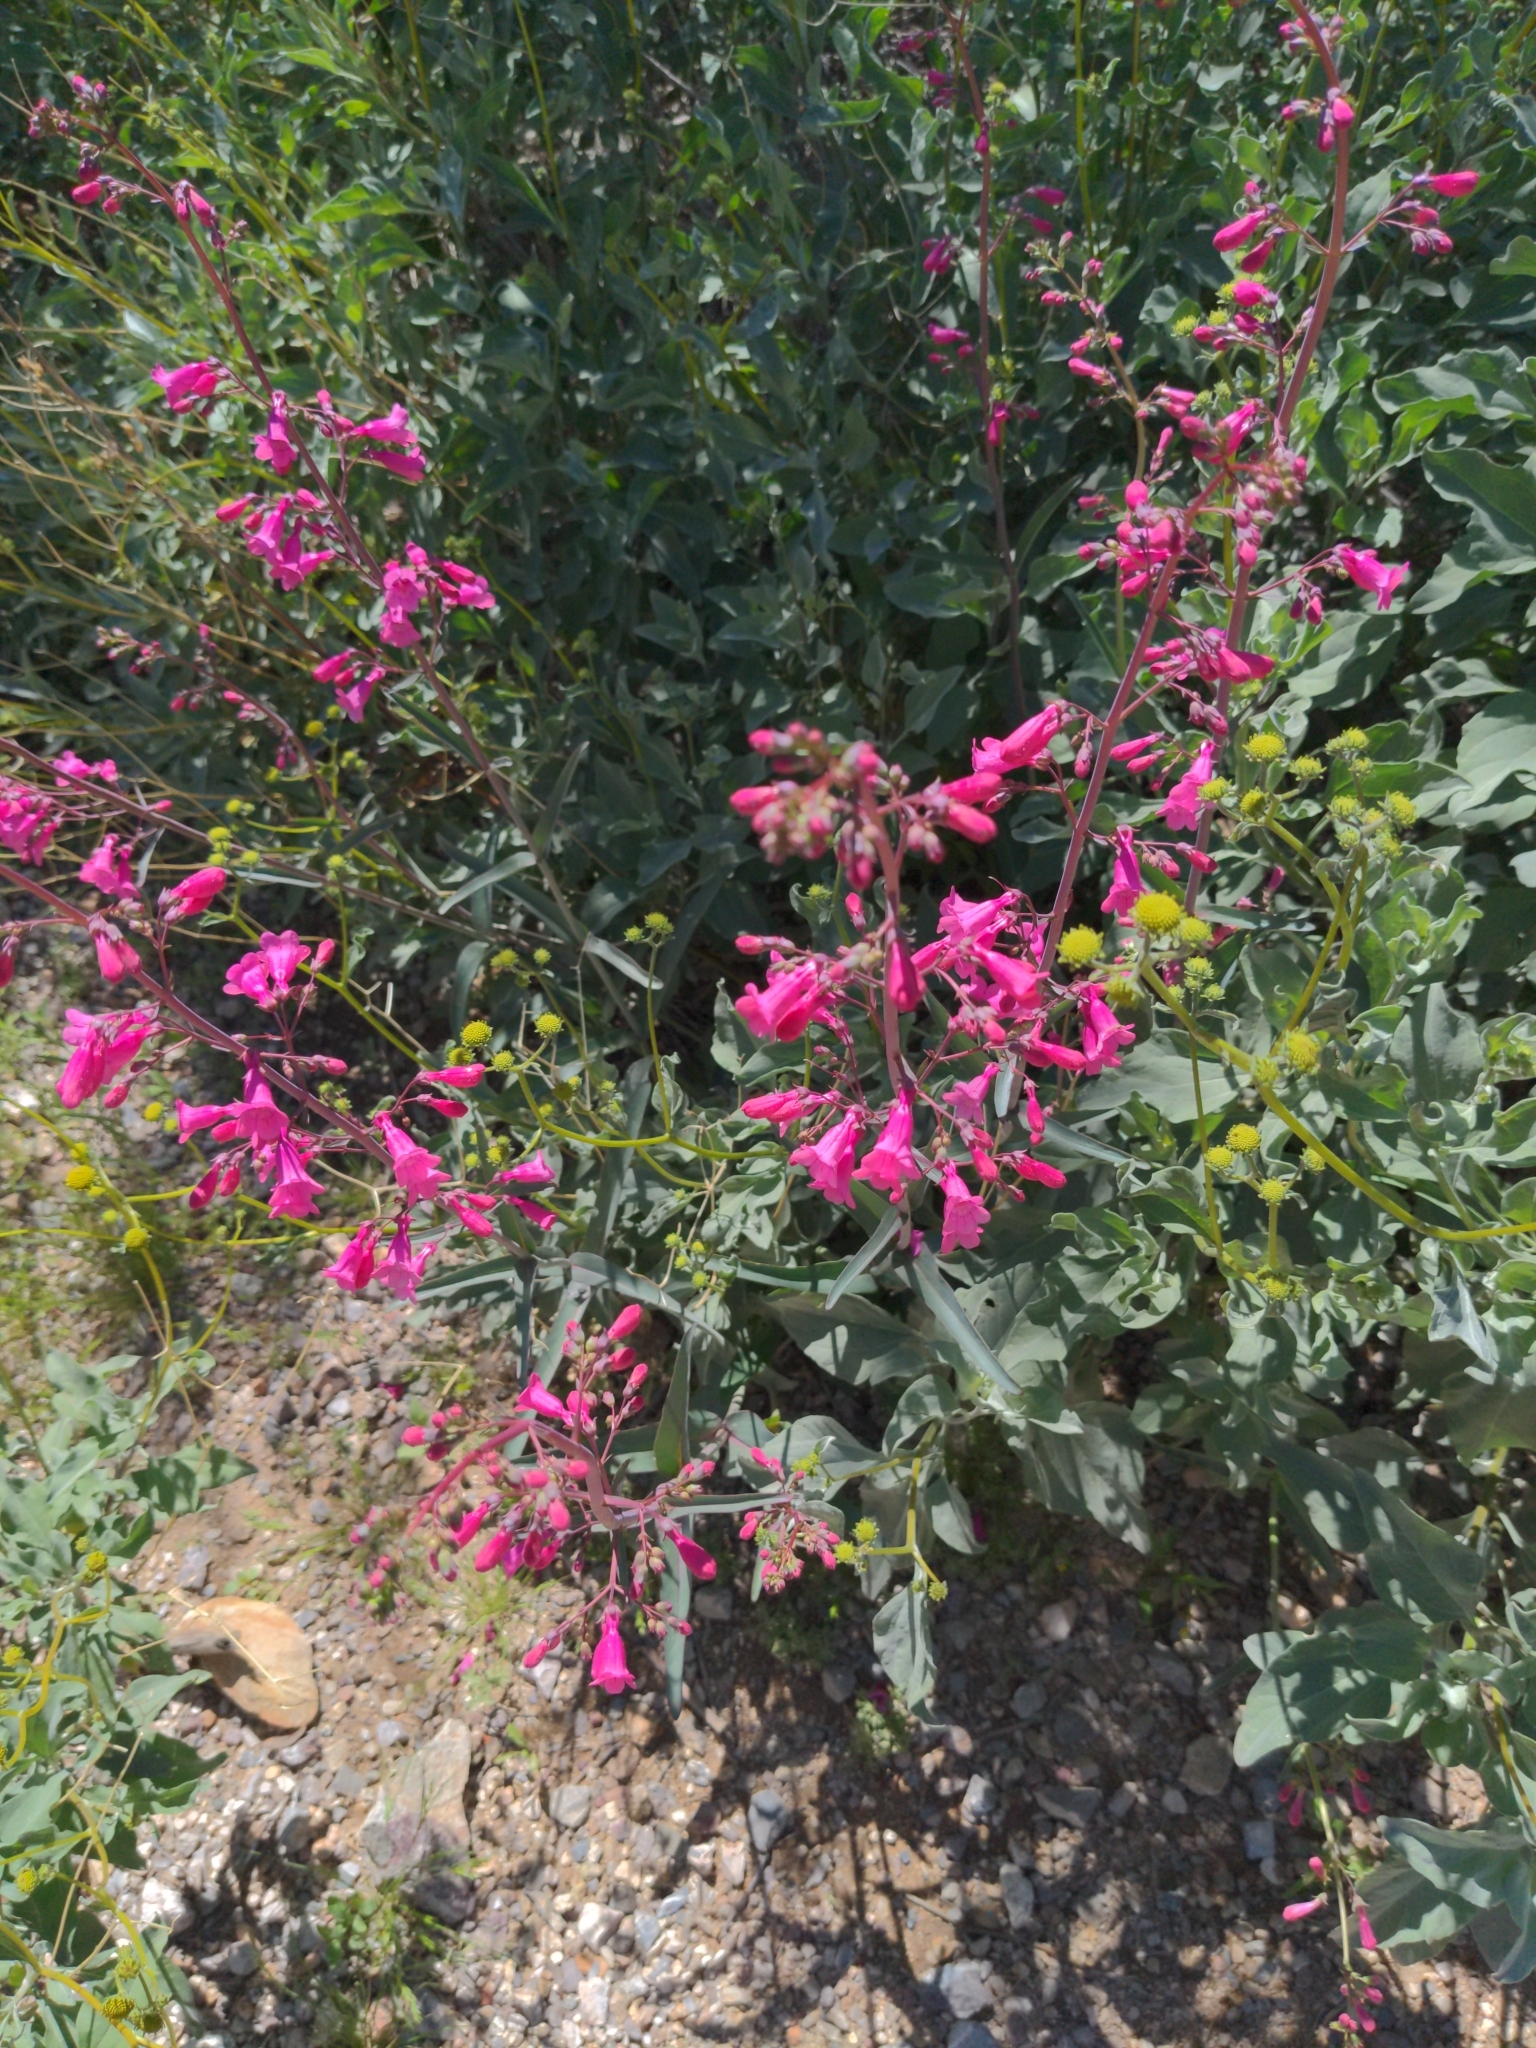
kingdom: Plantae
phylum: Tracheophyta
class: Magnoliopsida
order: Lamiales
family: Plantaginaceae
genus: Penstemon
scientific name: Penstemon parryi
